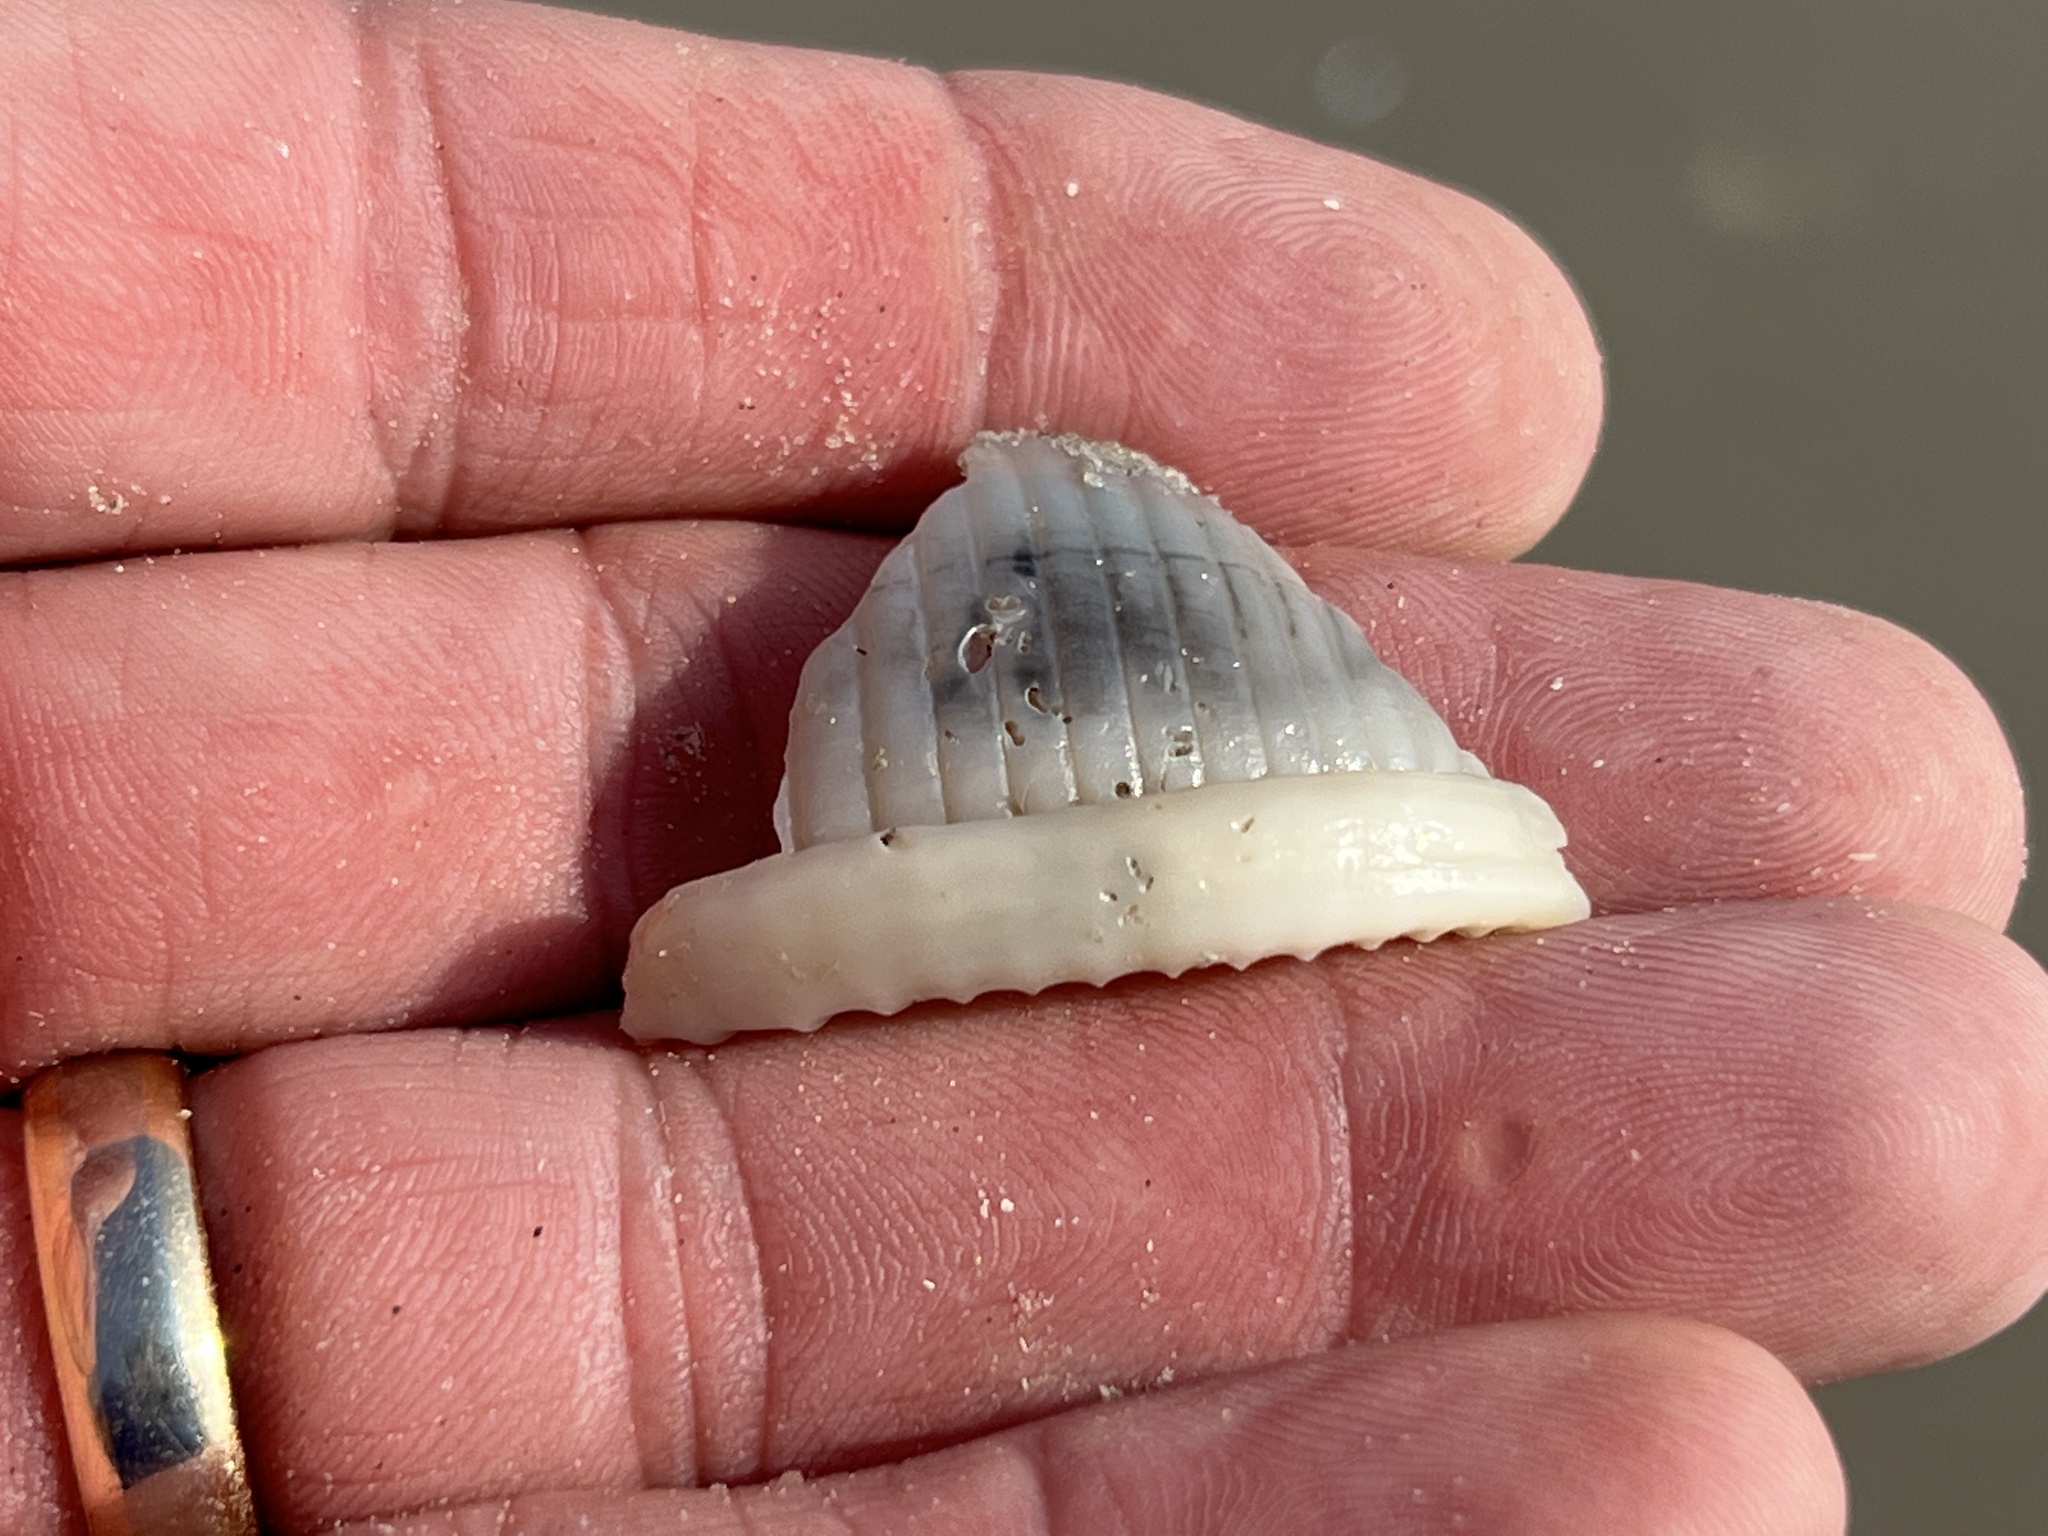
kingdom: Animalia
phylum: Mollusca
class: Gastropoda
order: Littorinimorpha
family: Cassidae
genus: Semicassis
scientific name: Semicassis granulata
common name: Scotch bonnet
